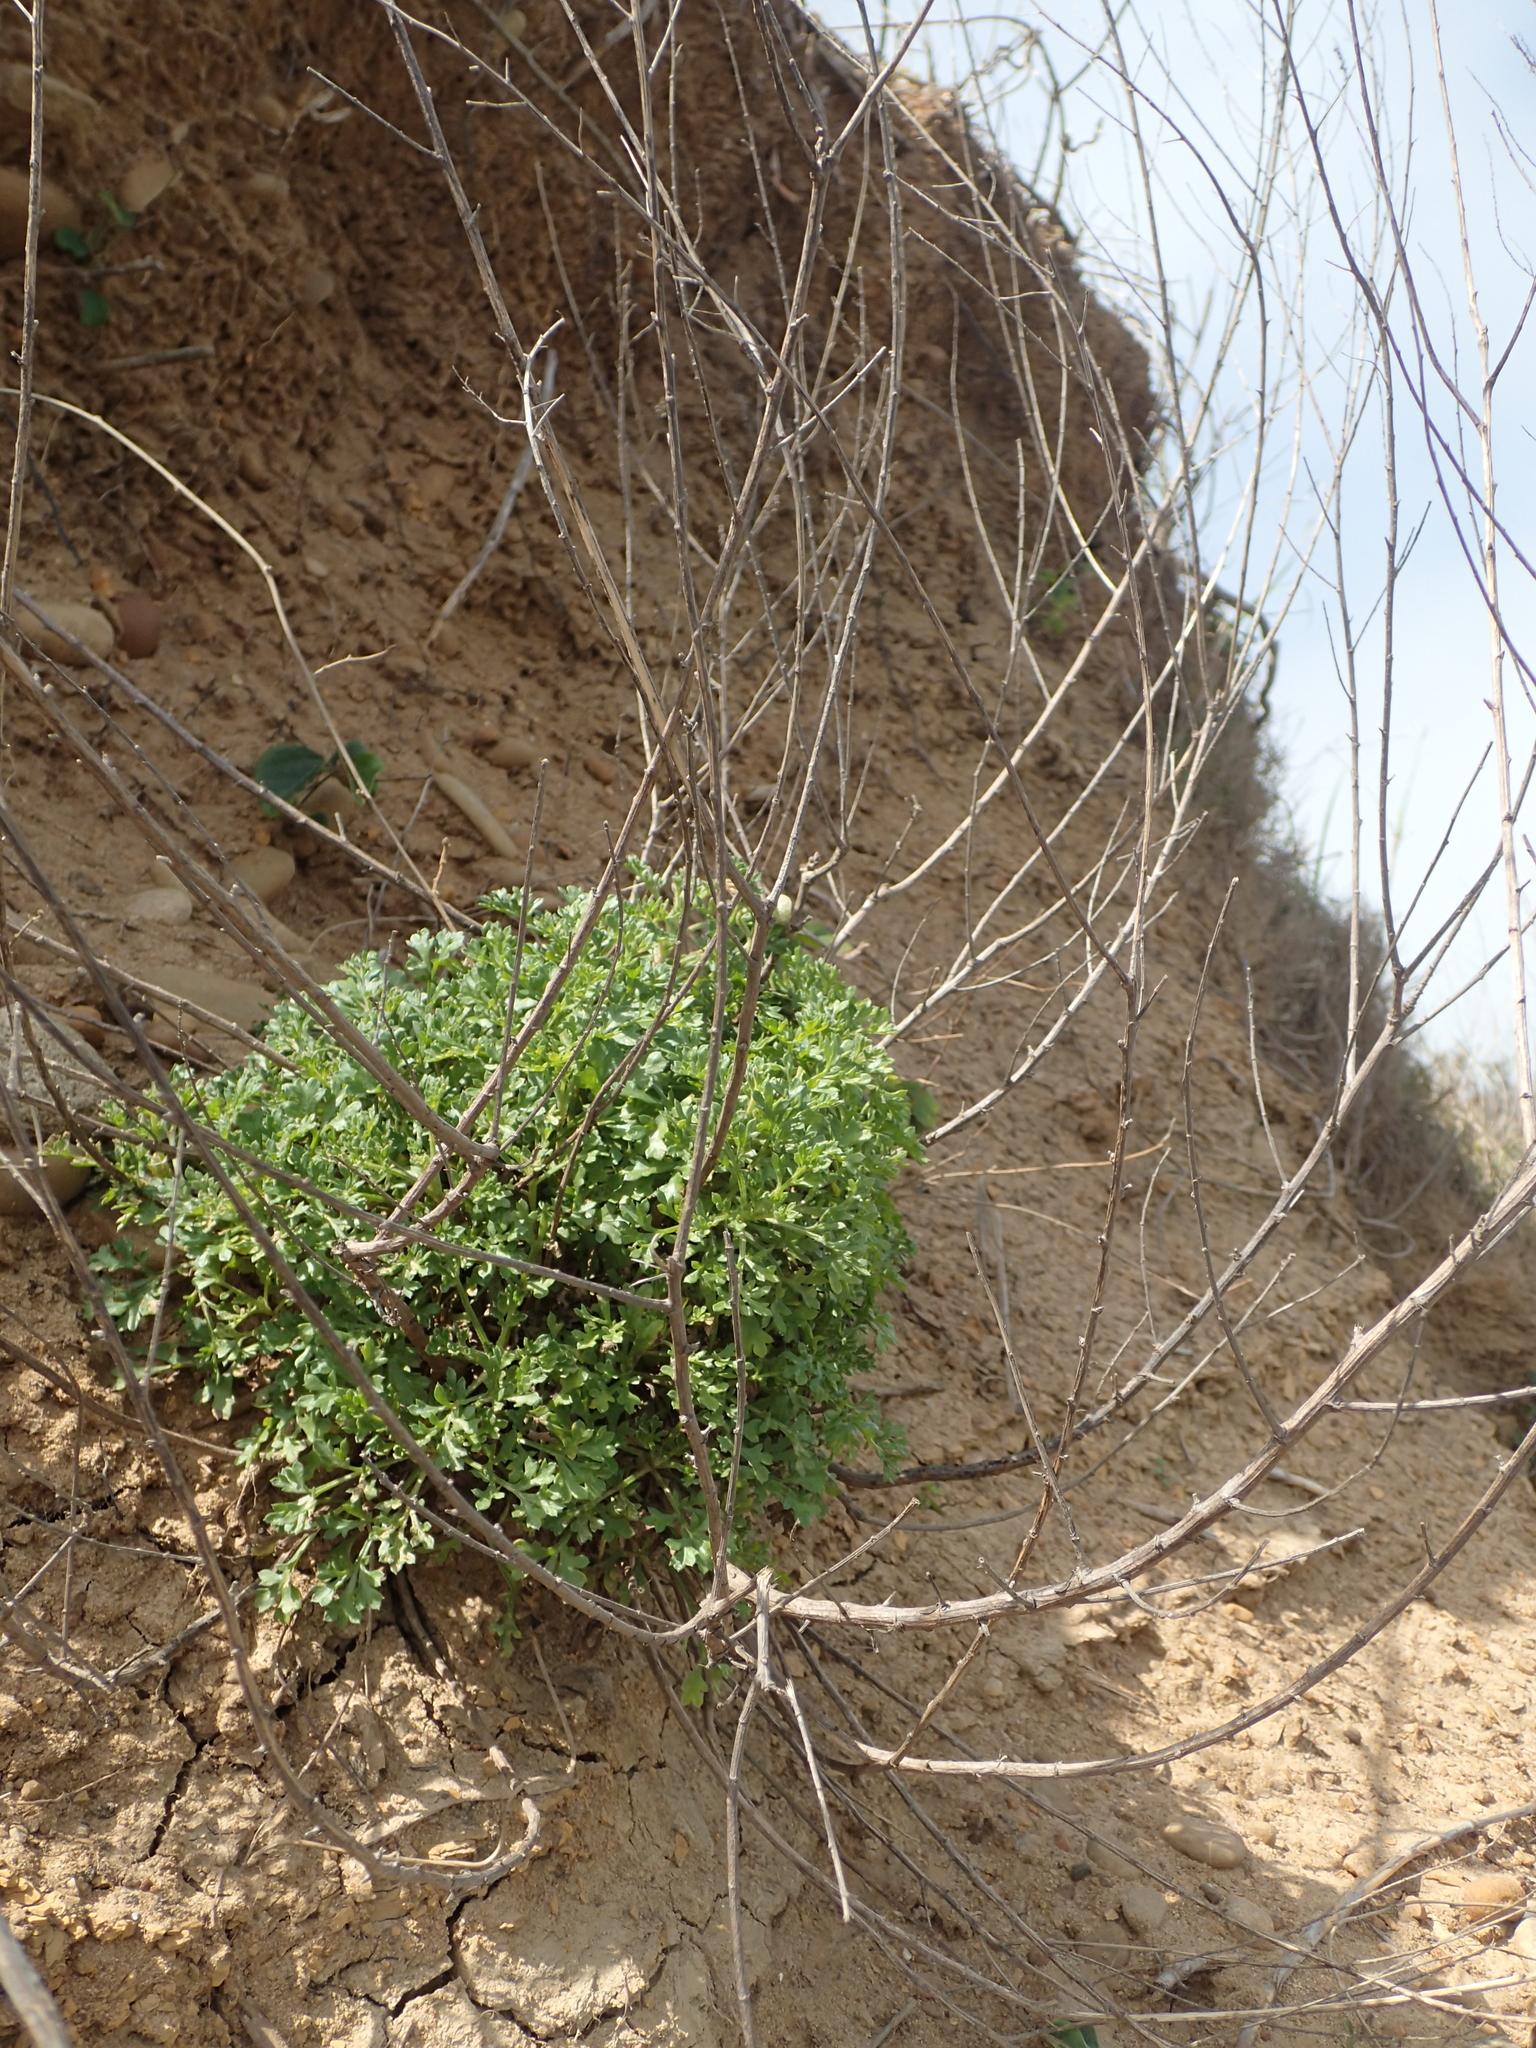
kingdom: Plantae
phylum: Tracheophyta
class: Magnoliopsida
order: Asterales
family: Asteraceae
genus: Artemisia
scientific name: Artemisia capillaris
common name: Yin-chen wormwood
